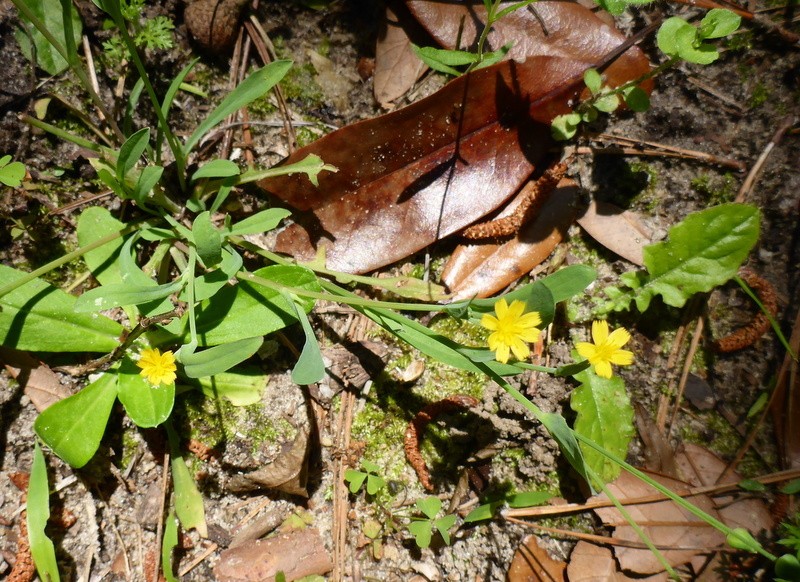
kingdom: Plantae
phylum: Tracheophyta
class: Magnoliopsida
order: Asterales
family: Asteraceae
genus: Krigia
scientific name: Krigia cespitosa
